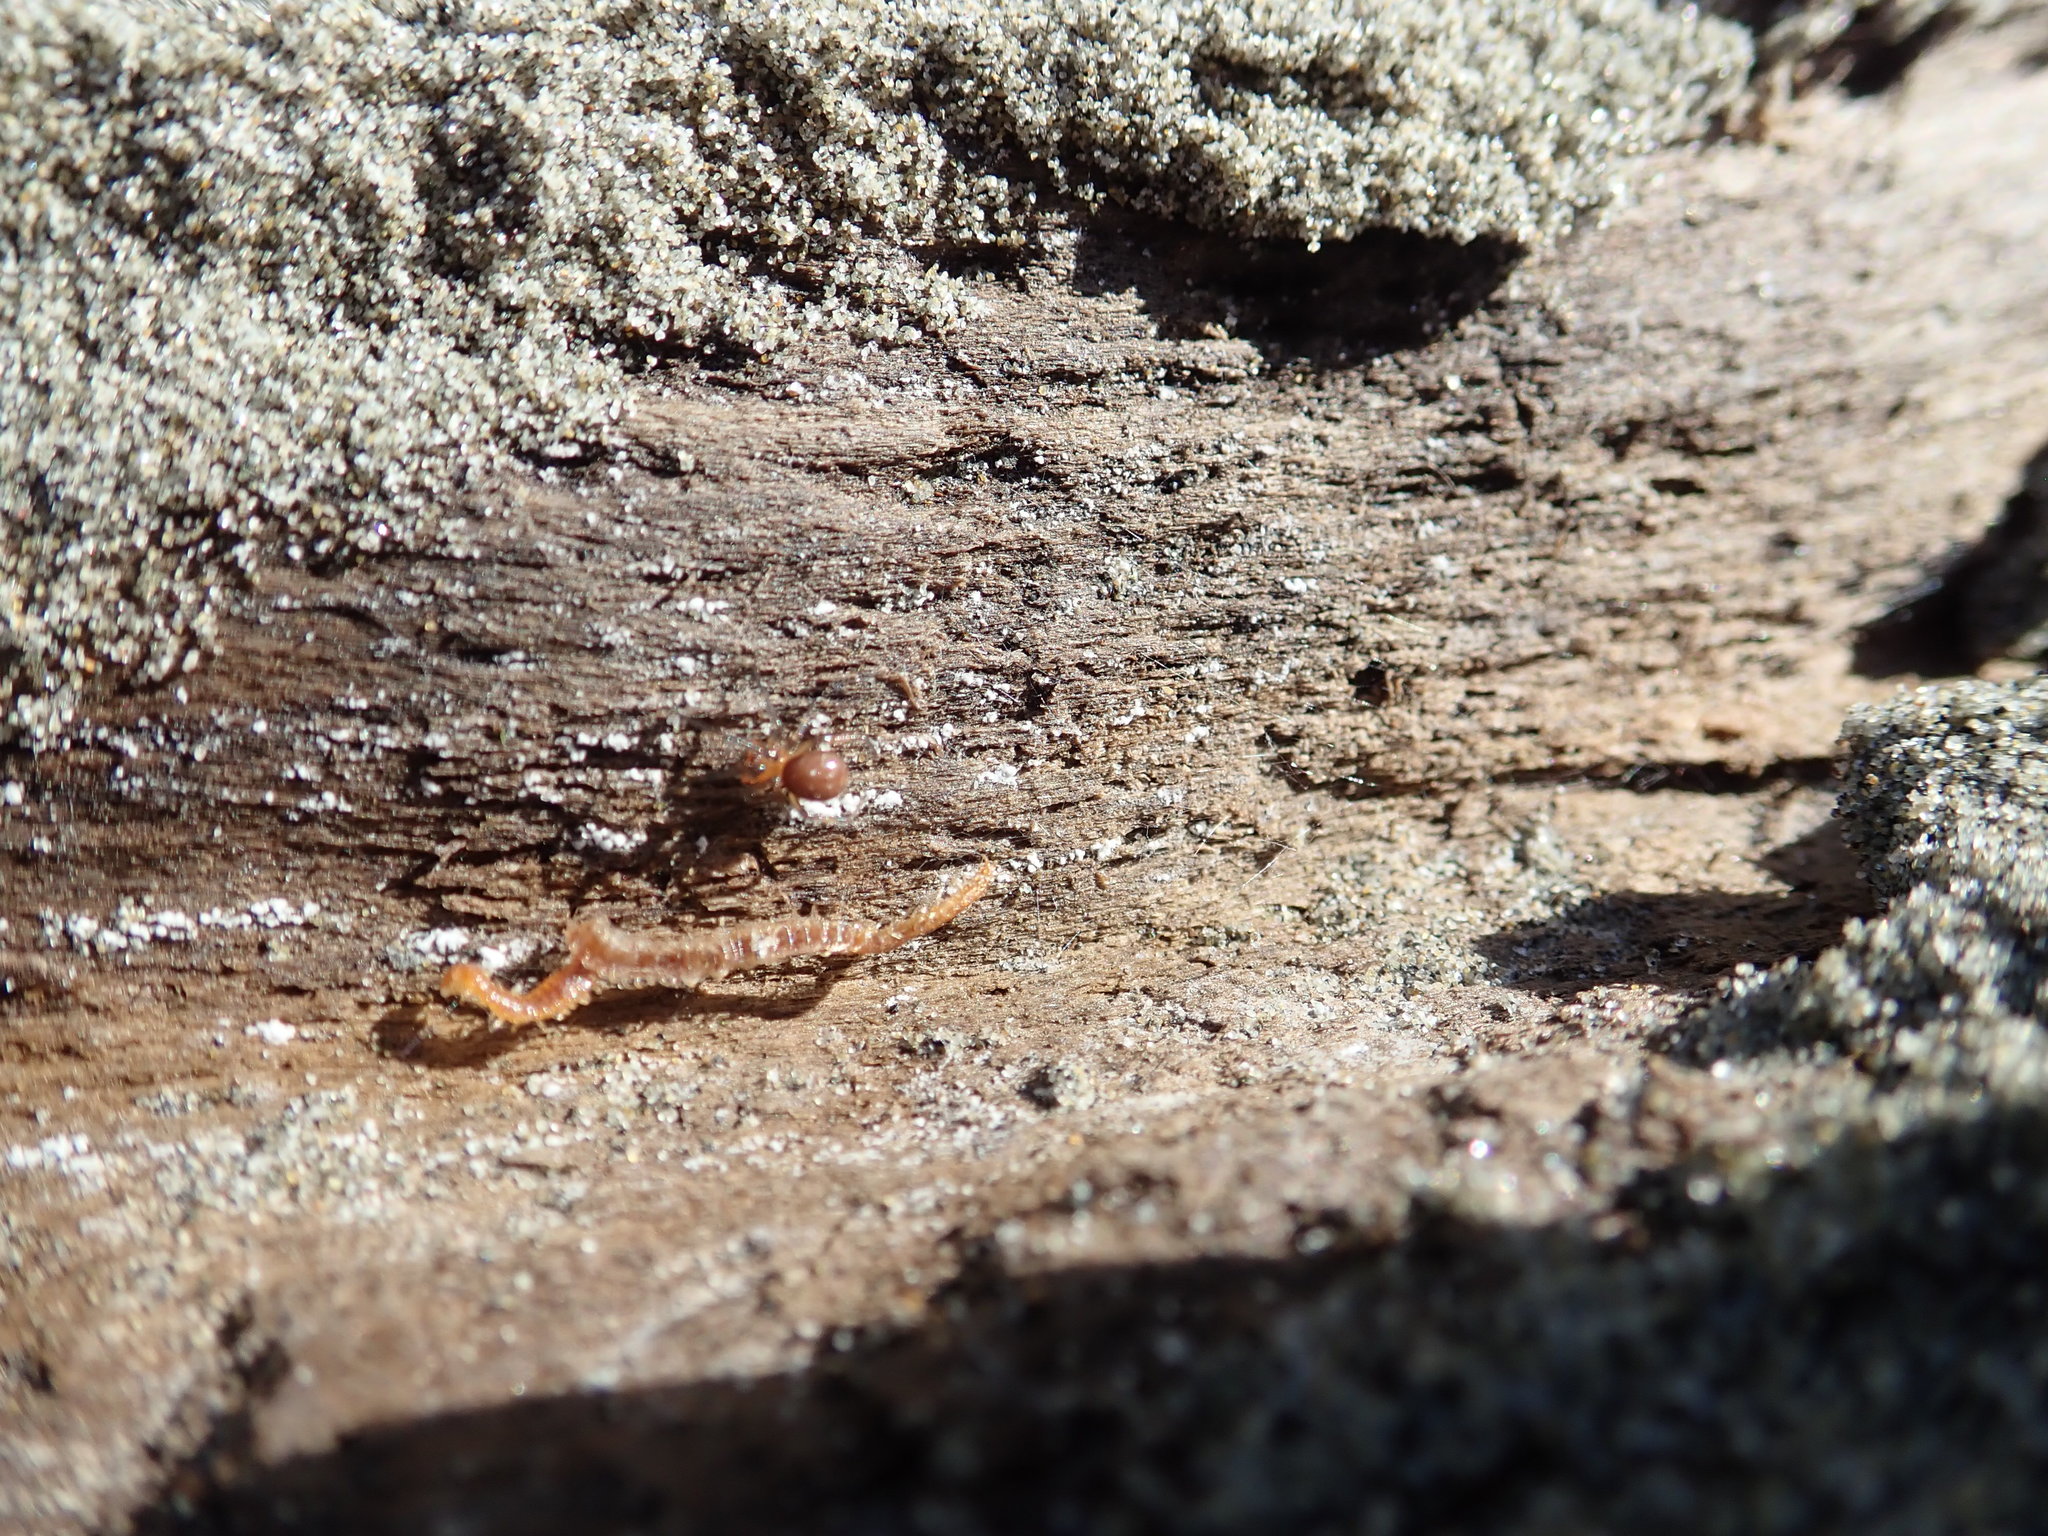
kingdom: Animalia
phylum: Arthropoda
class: Arachnida
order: Araneae
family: Theridiidae
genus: Steatoda
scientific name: Steatoda capensis
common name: Cobweb weaver
